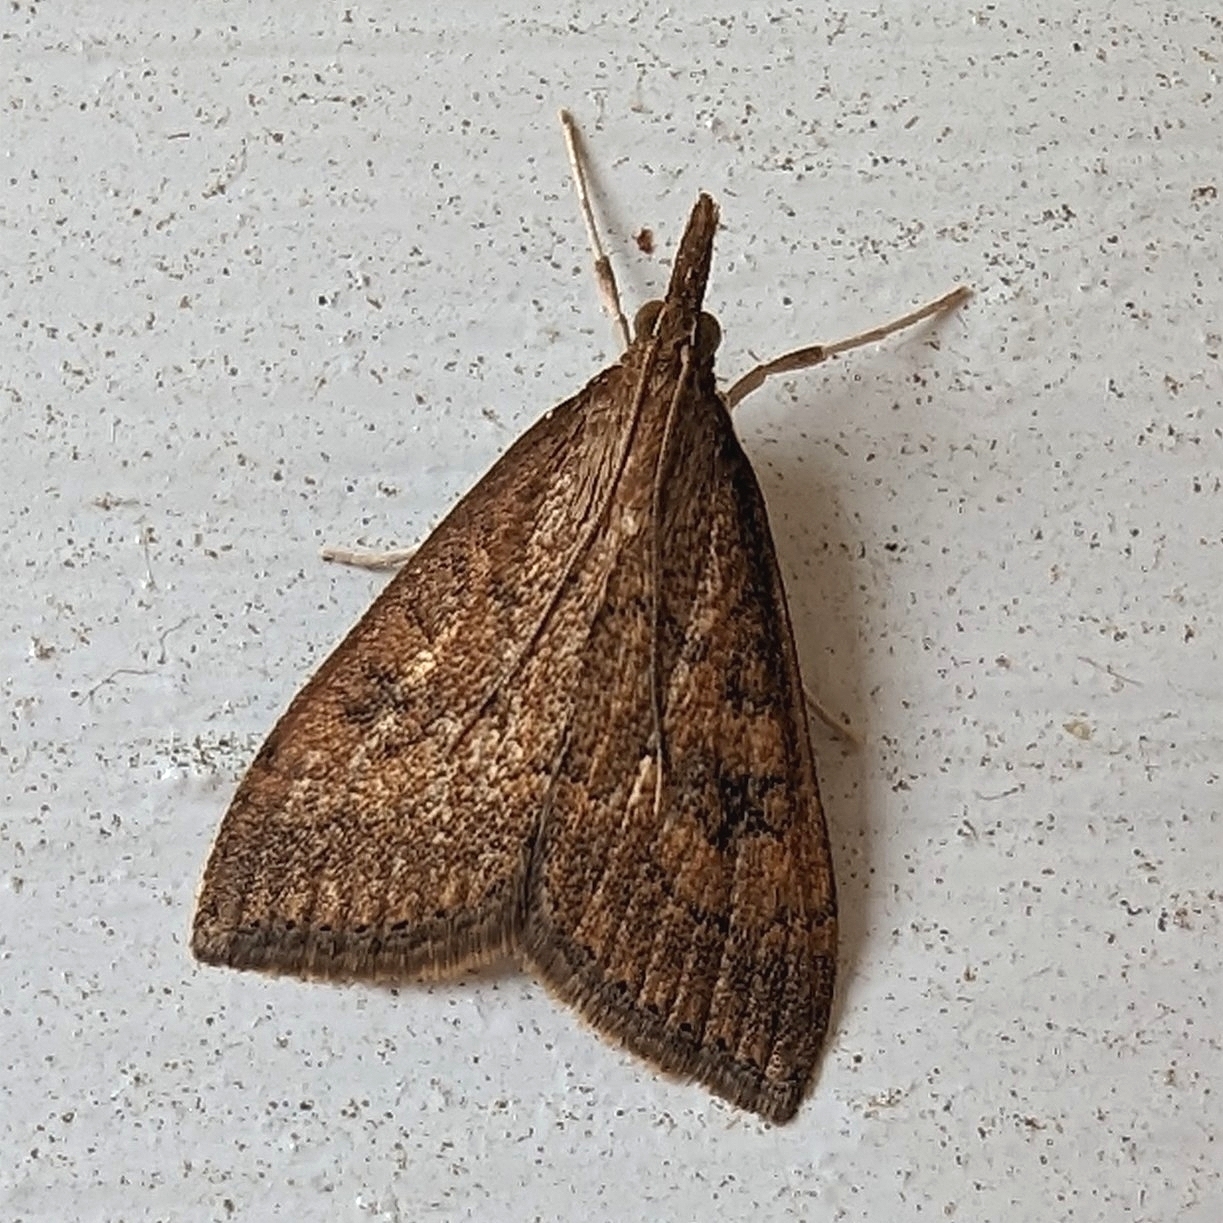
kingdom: Animalia
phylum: Arthropoda
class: Insecta
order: Lepidoptera
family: Crambidae
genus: Udea
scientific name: Udea rubigalis
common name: Celery leaftier moth
